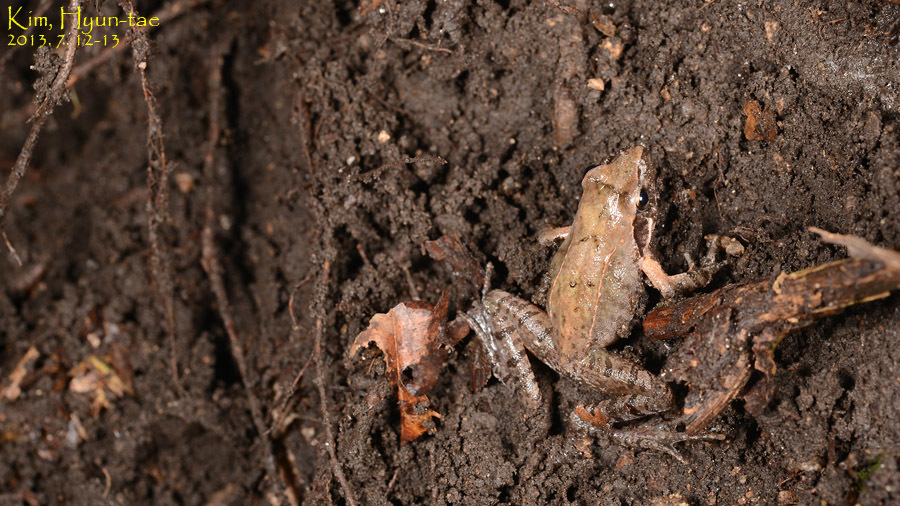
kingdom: Animalia
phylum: Chordata
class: Amphibia
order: Caudata
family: Plethodontidae
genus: Karsenia
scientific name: Karsenia koreana
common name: Korean crevice salamander
